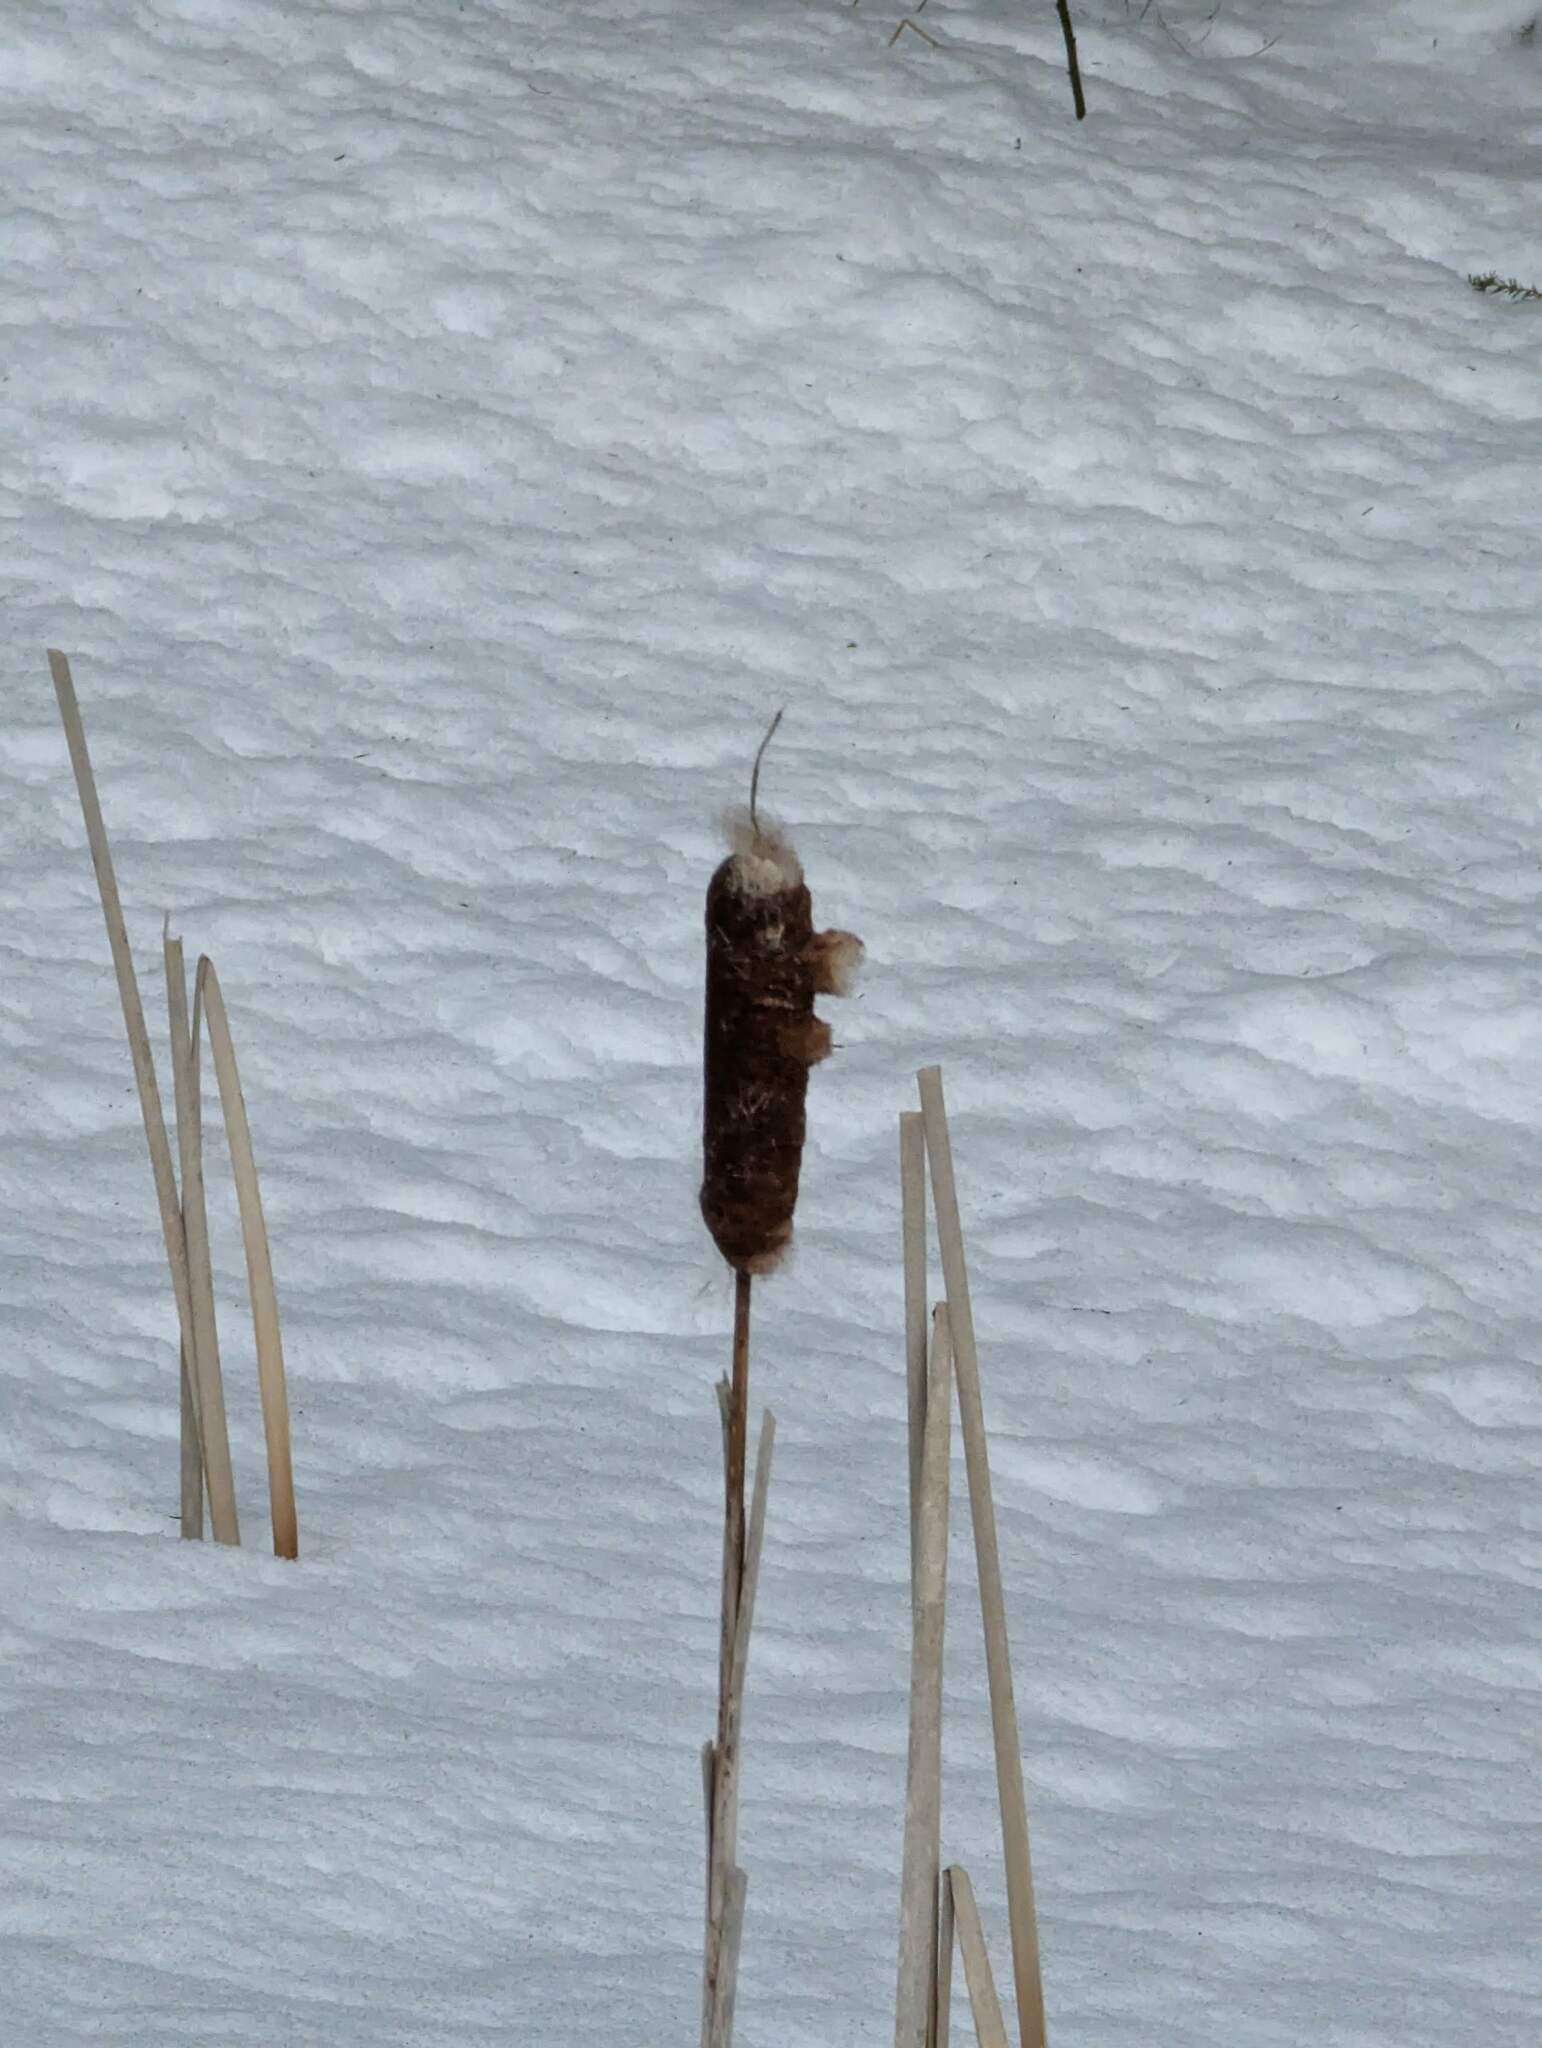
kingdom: Plantae
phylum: Tracheophyta
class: Liliopsida
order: Poales
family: Typhaceae
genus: Typha
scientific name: Typha latifolia
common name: Broadleaf cattail
